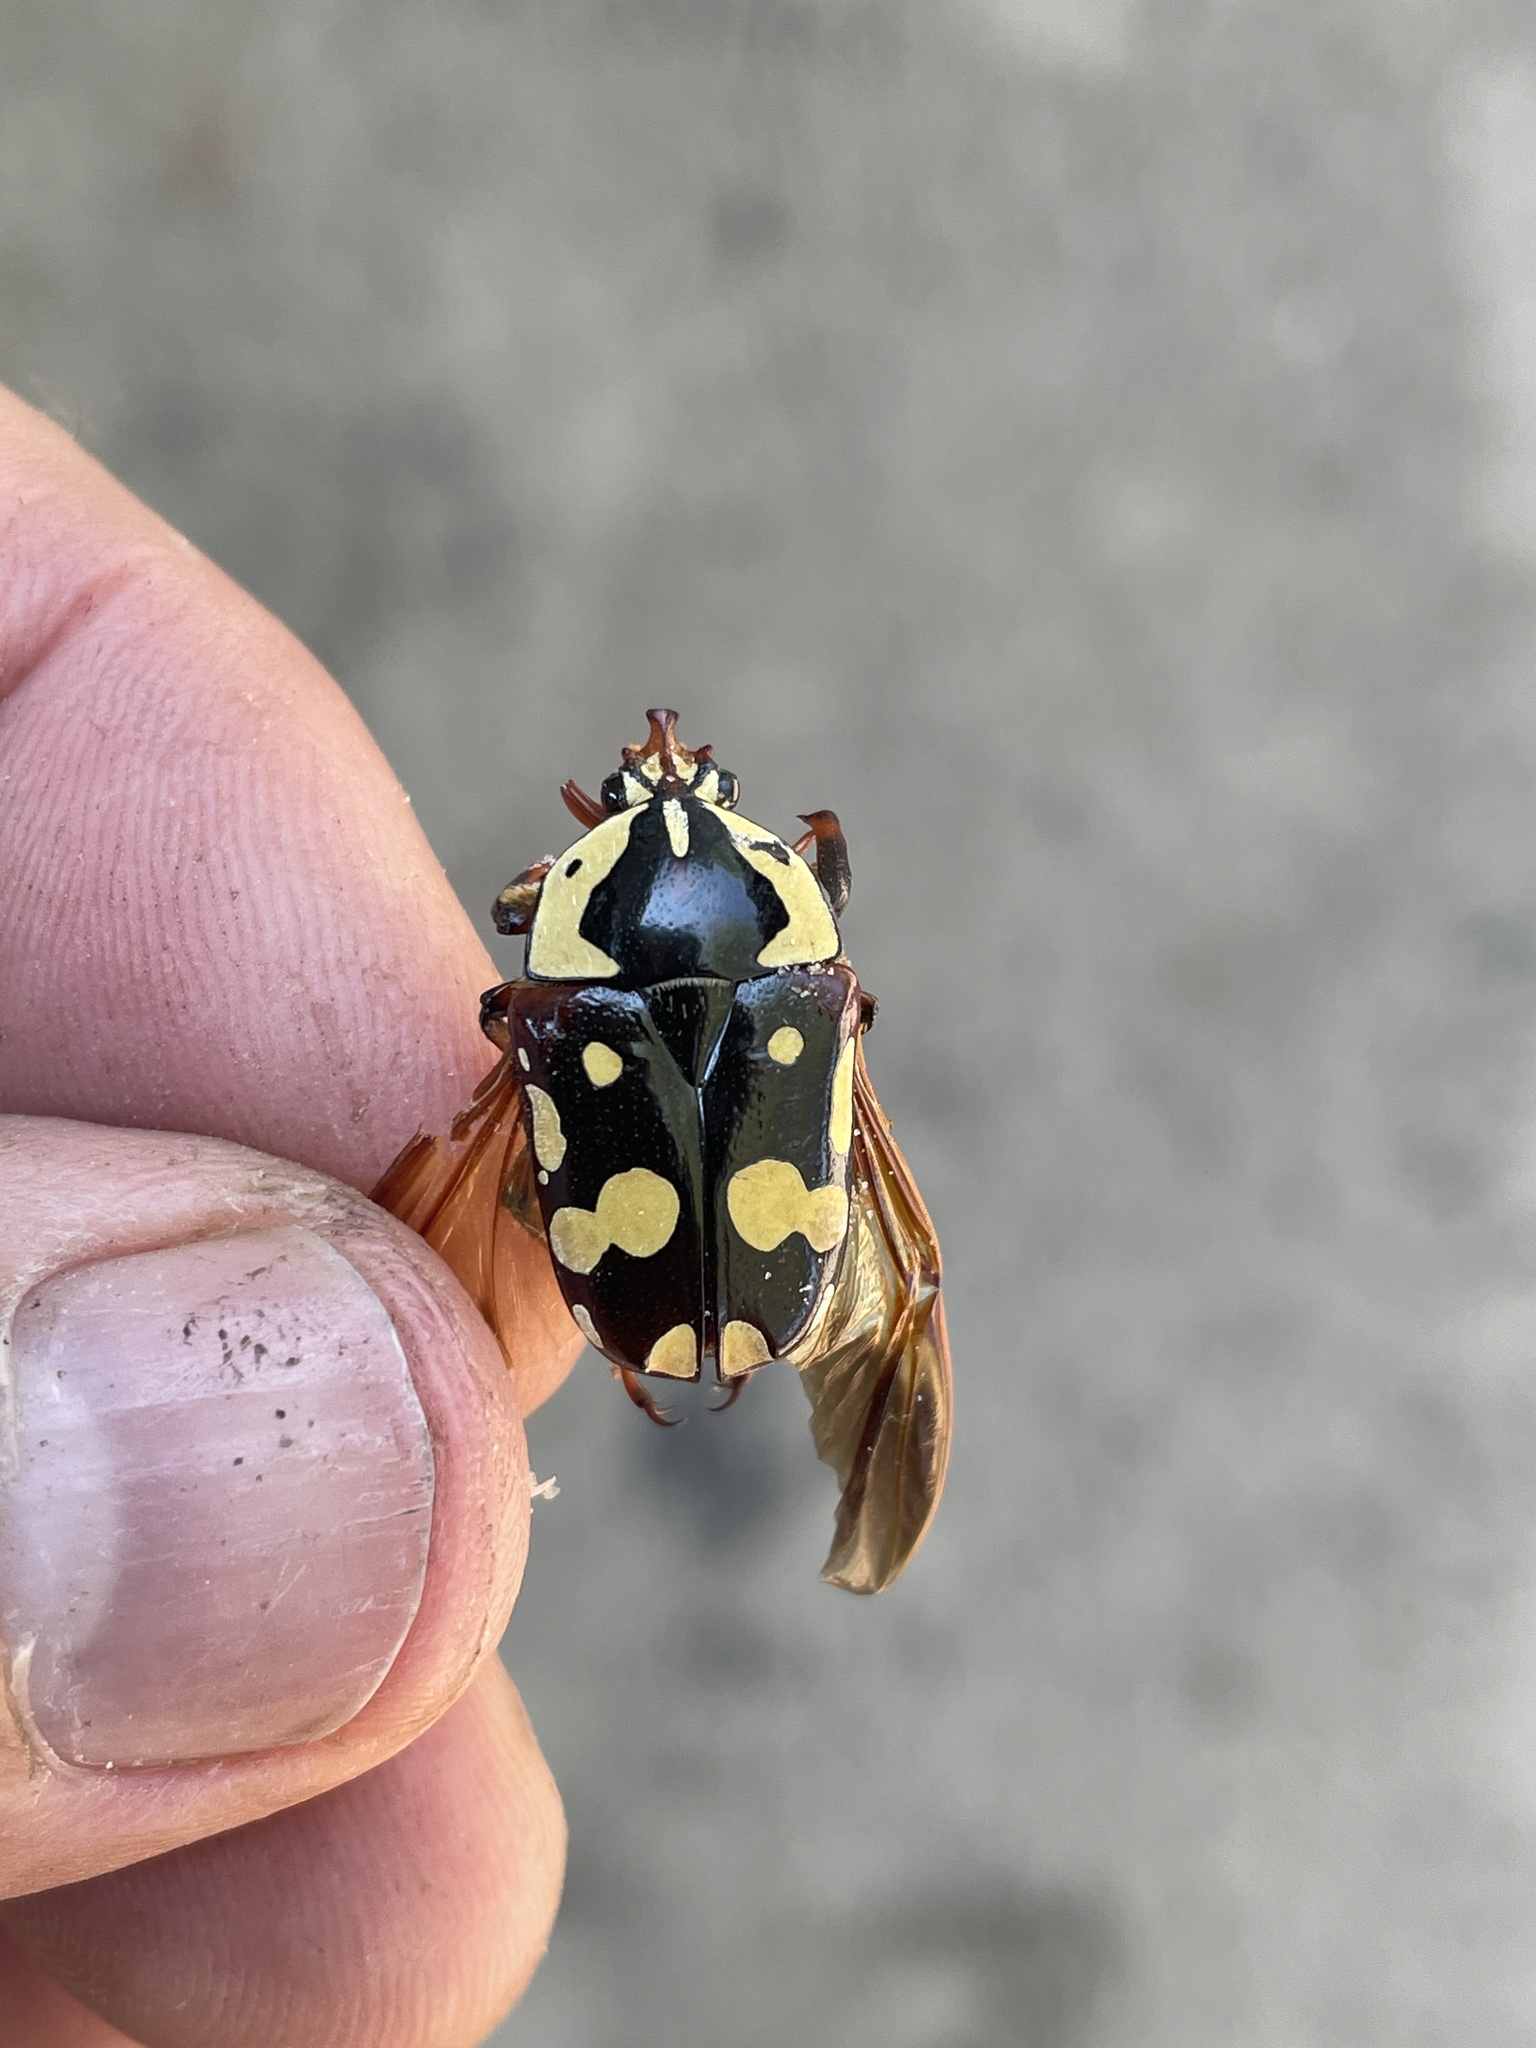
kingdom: Animalia
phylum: Arthropoda
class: Insecta
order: Coleoptera
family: Scarabaeidae
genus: Cheirolasia
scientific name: Cheirolasia burkei
